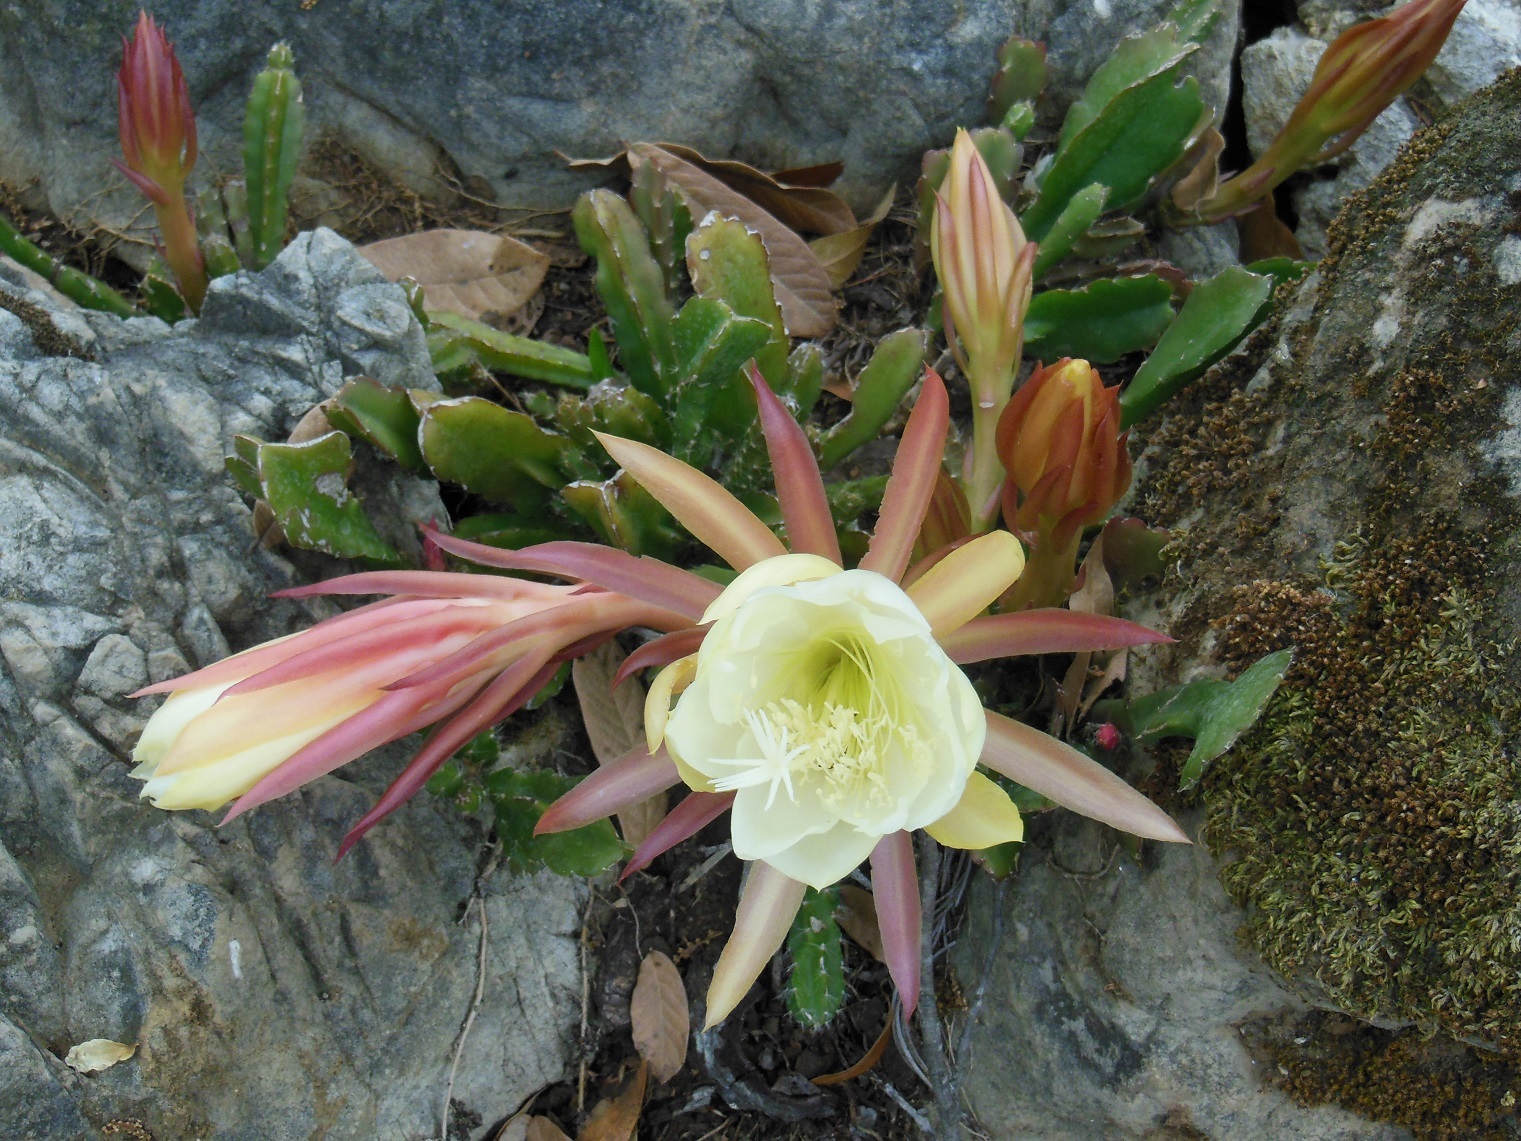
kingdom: Plantae
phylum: Tracheophyta
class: Magnoliopsida
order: Caryophyllales
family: Cactaceae
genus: Disocactus
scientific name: Disocactus crenatus
